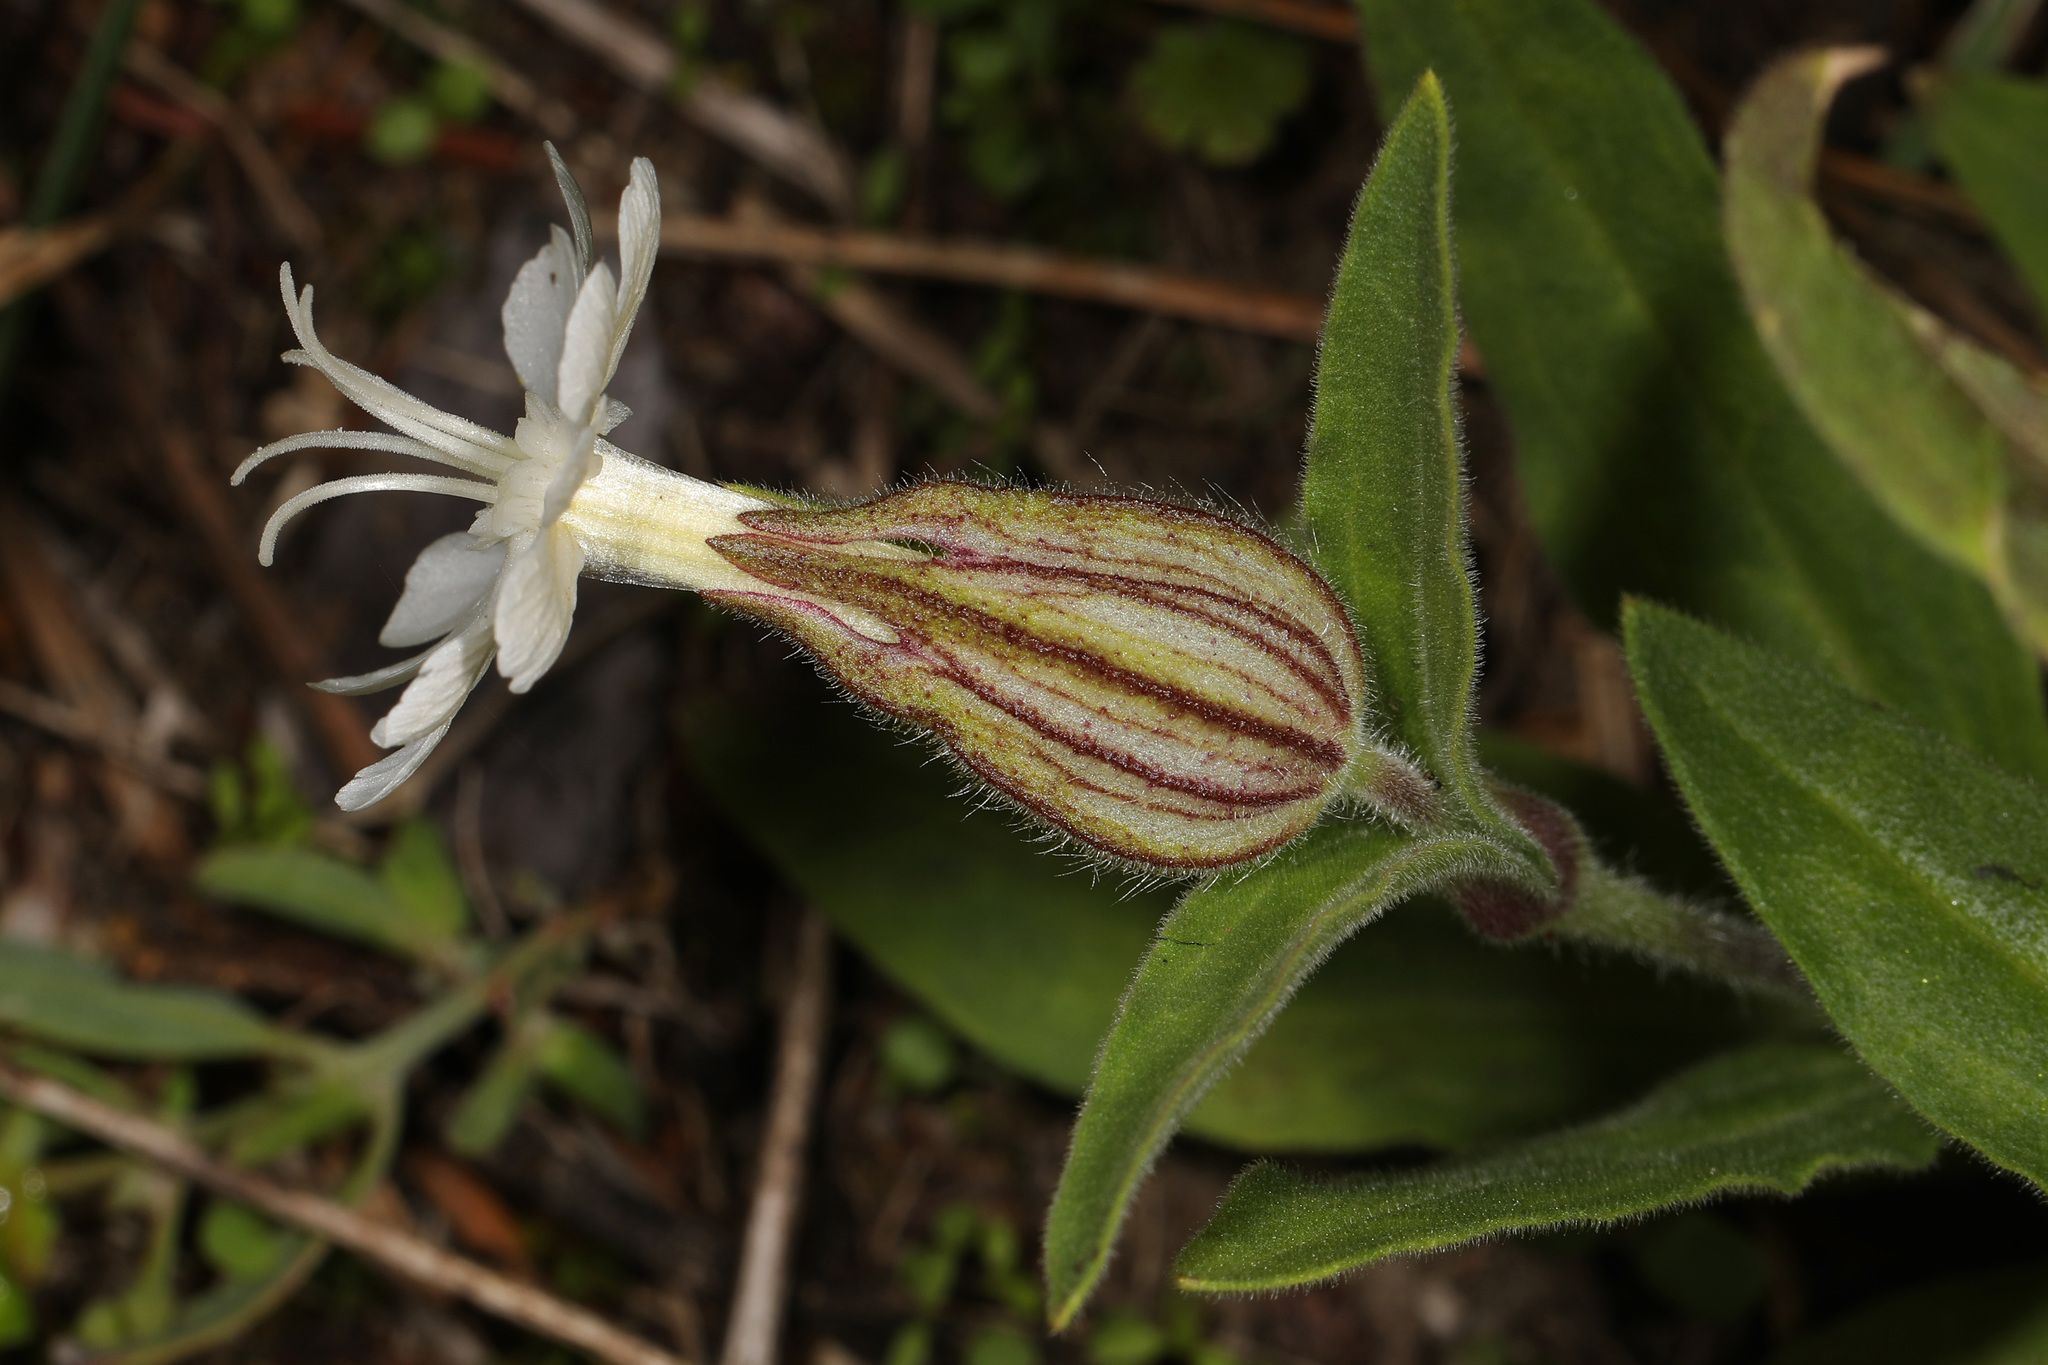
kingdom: Plantae
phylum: Tracheophyta
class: Magnoliopsida
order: Caryophyllales
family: Caryophyllaceae
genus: Silene
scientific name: Silene latifolia
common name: White campion
